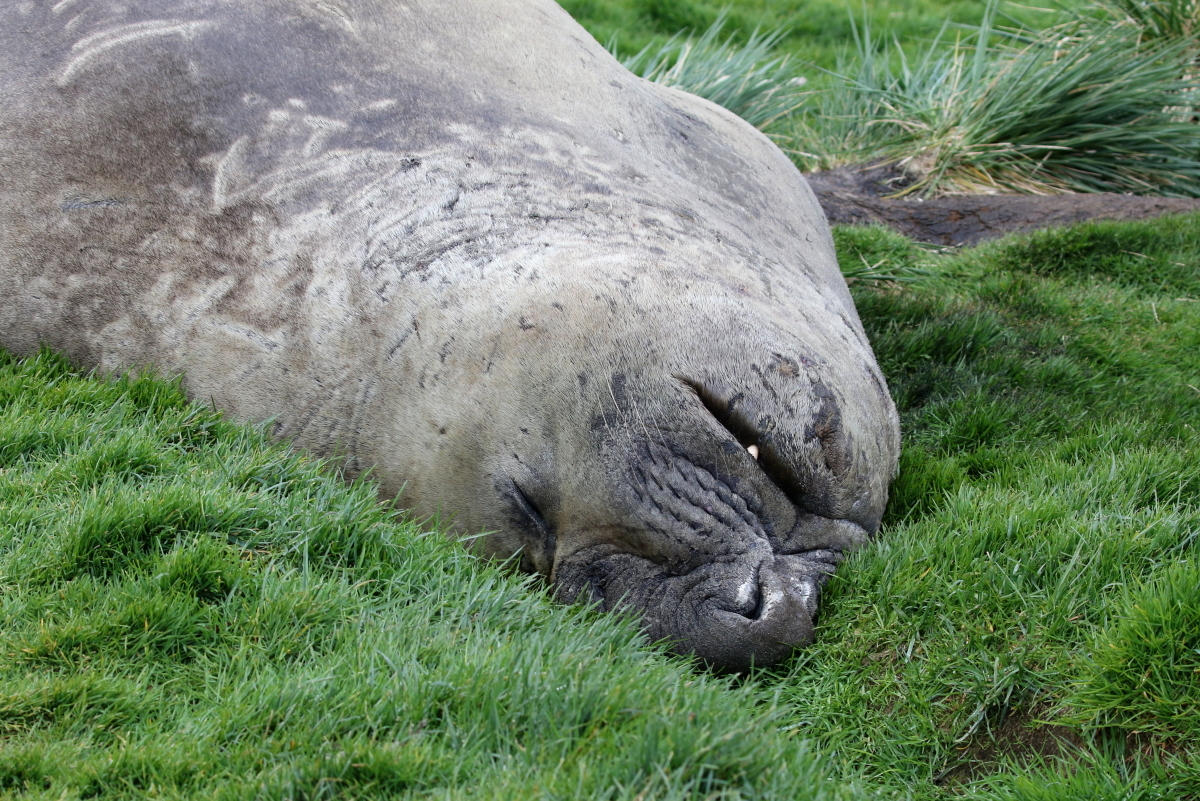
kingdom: Animalia
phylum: Chordata
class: Mammalia
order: Carnivora
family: Phocidae
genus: Mirounga
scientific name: Mirounga leonina
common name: Southern elephant seal
